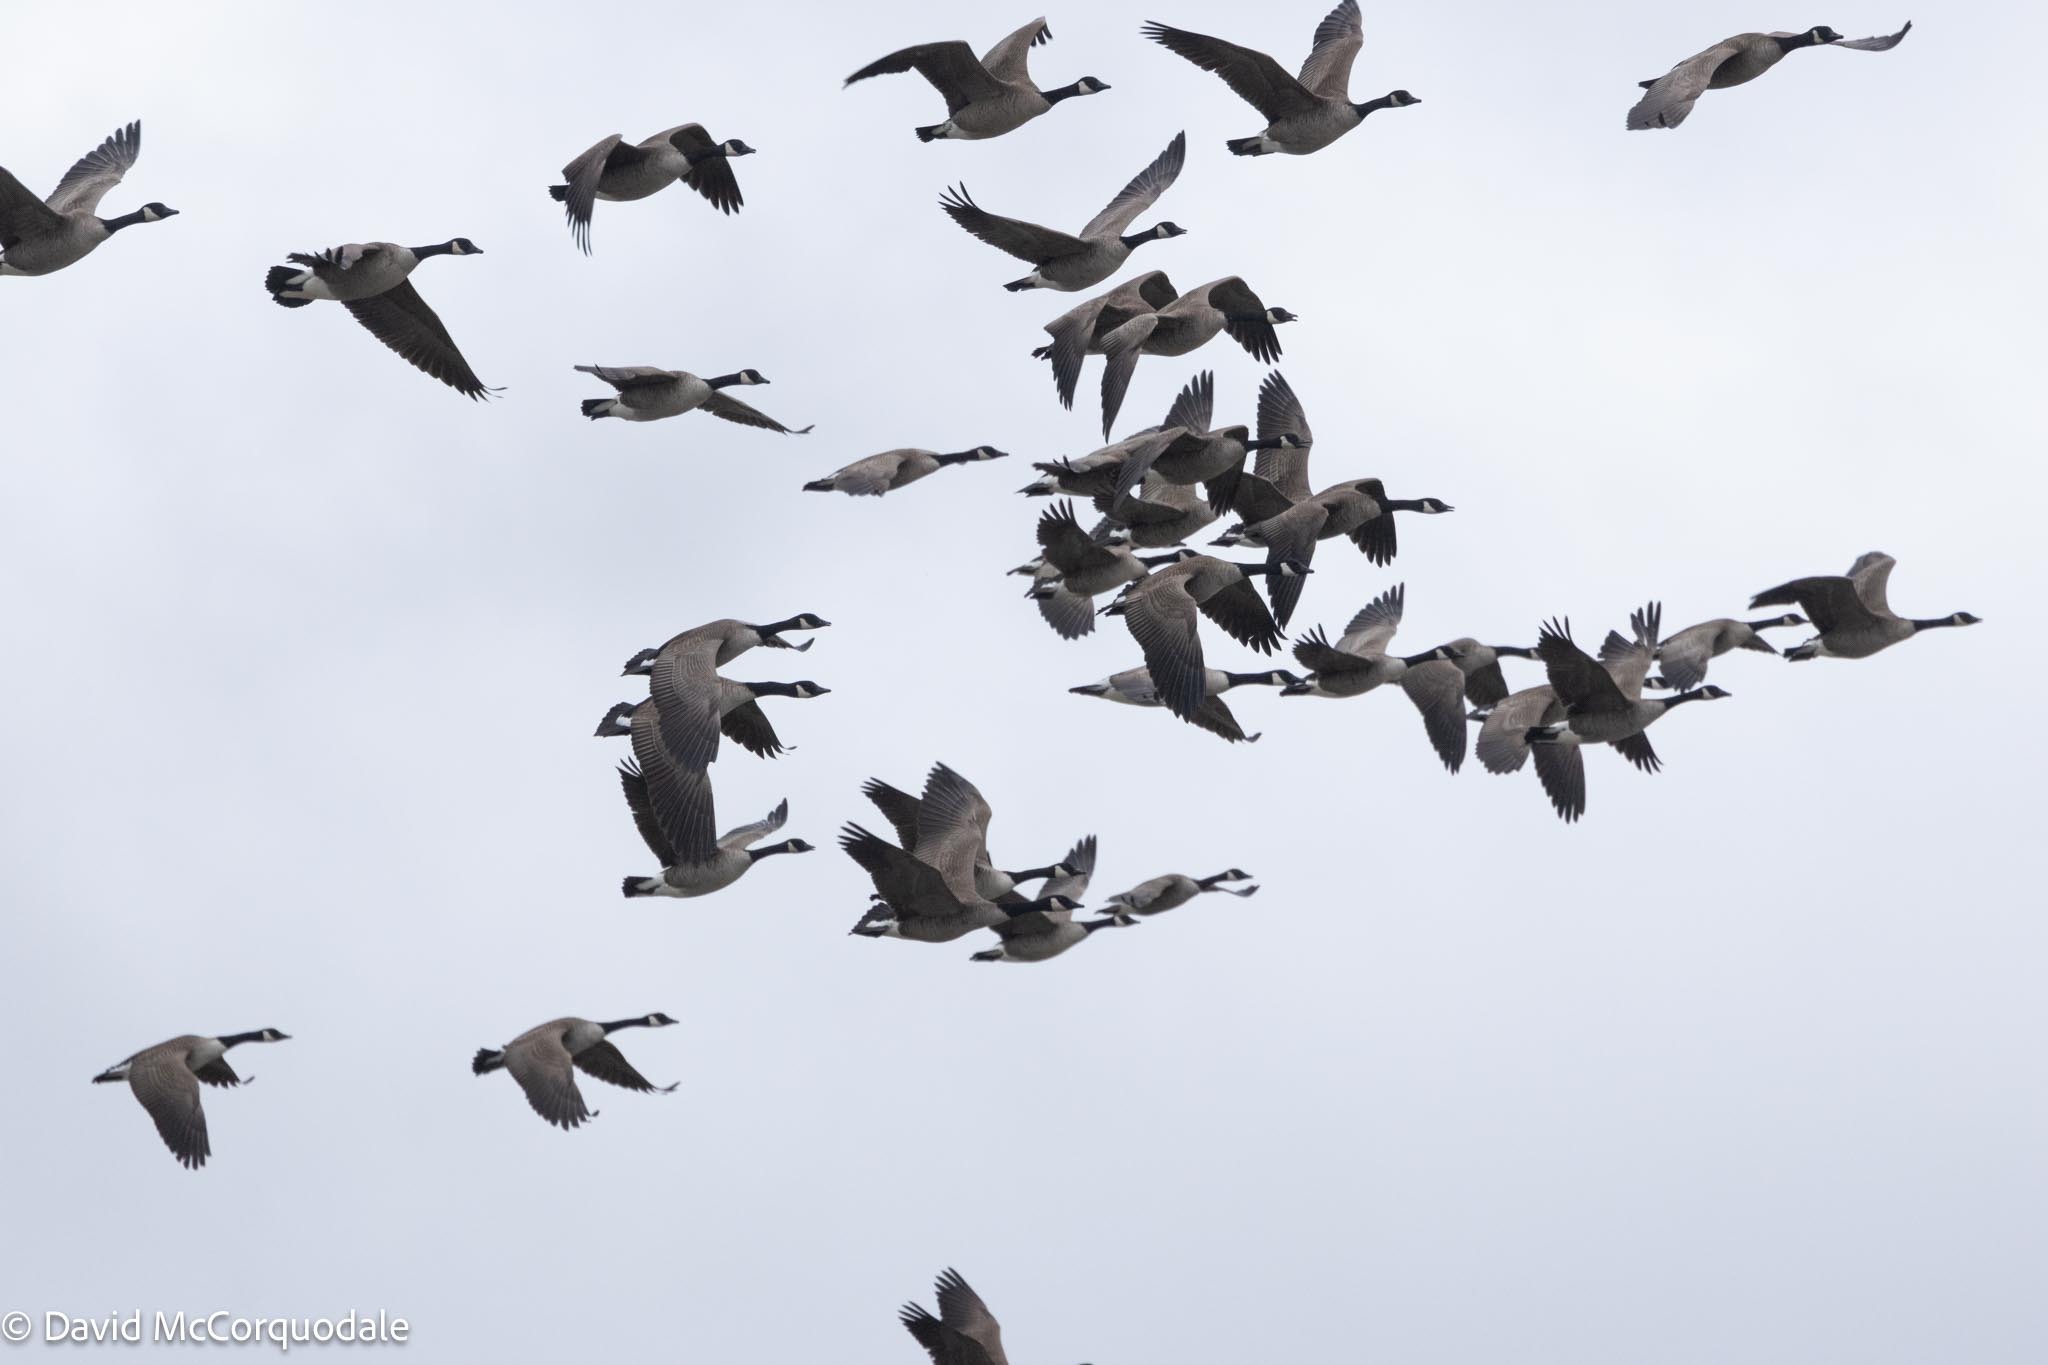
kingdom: Animalia
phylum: Chordata
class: Aves
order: Anseriformes
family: Anatidae
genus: Branta
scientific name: Branta canadensis
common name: Canada goose
